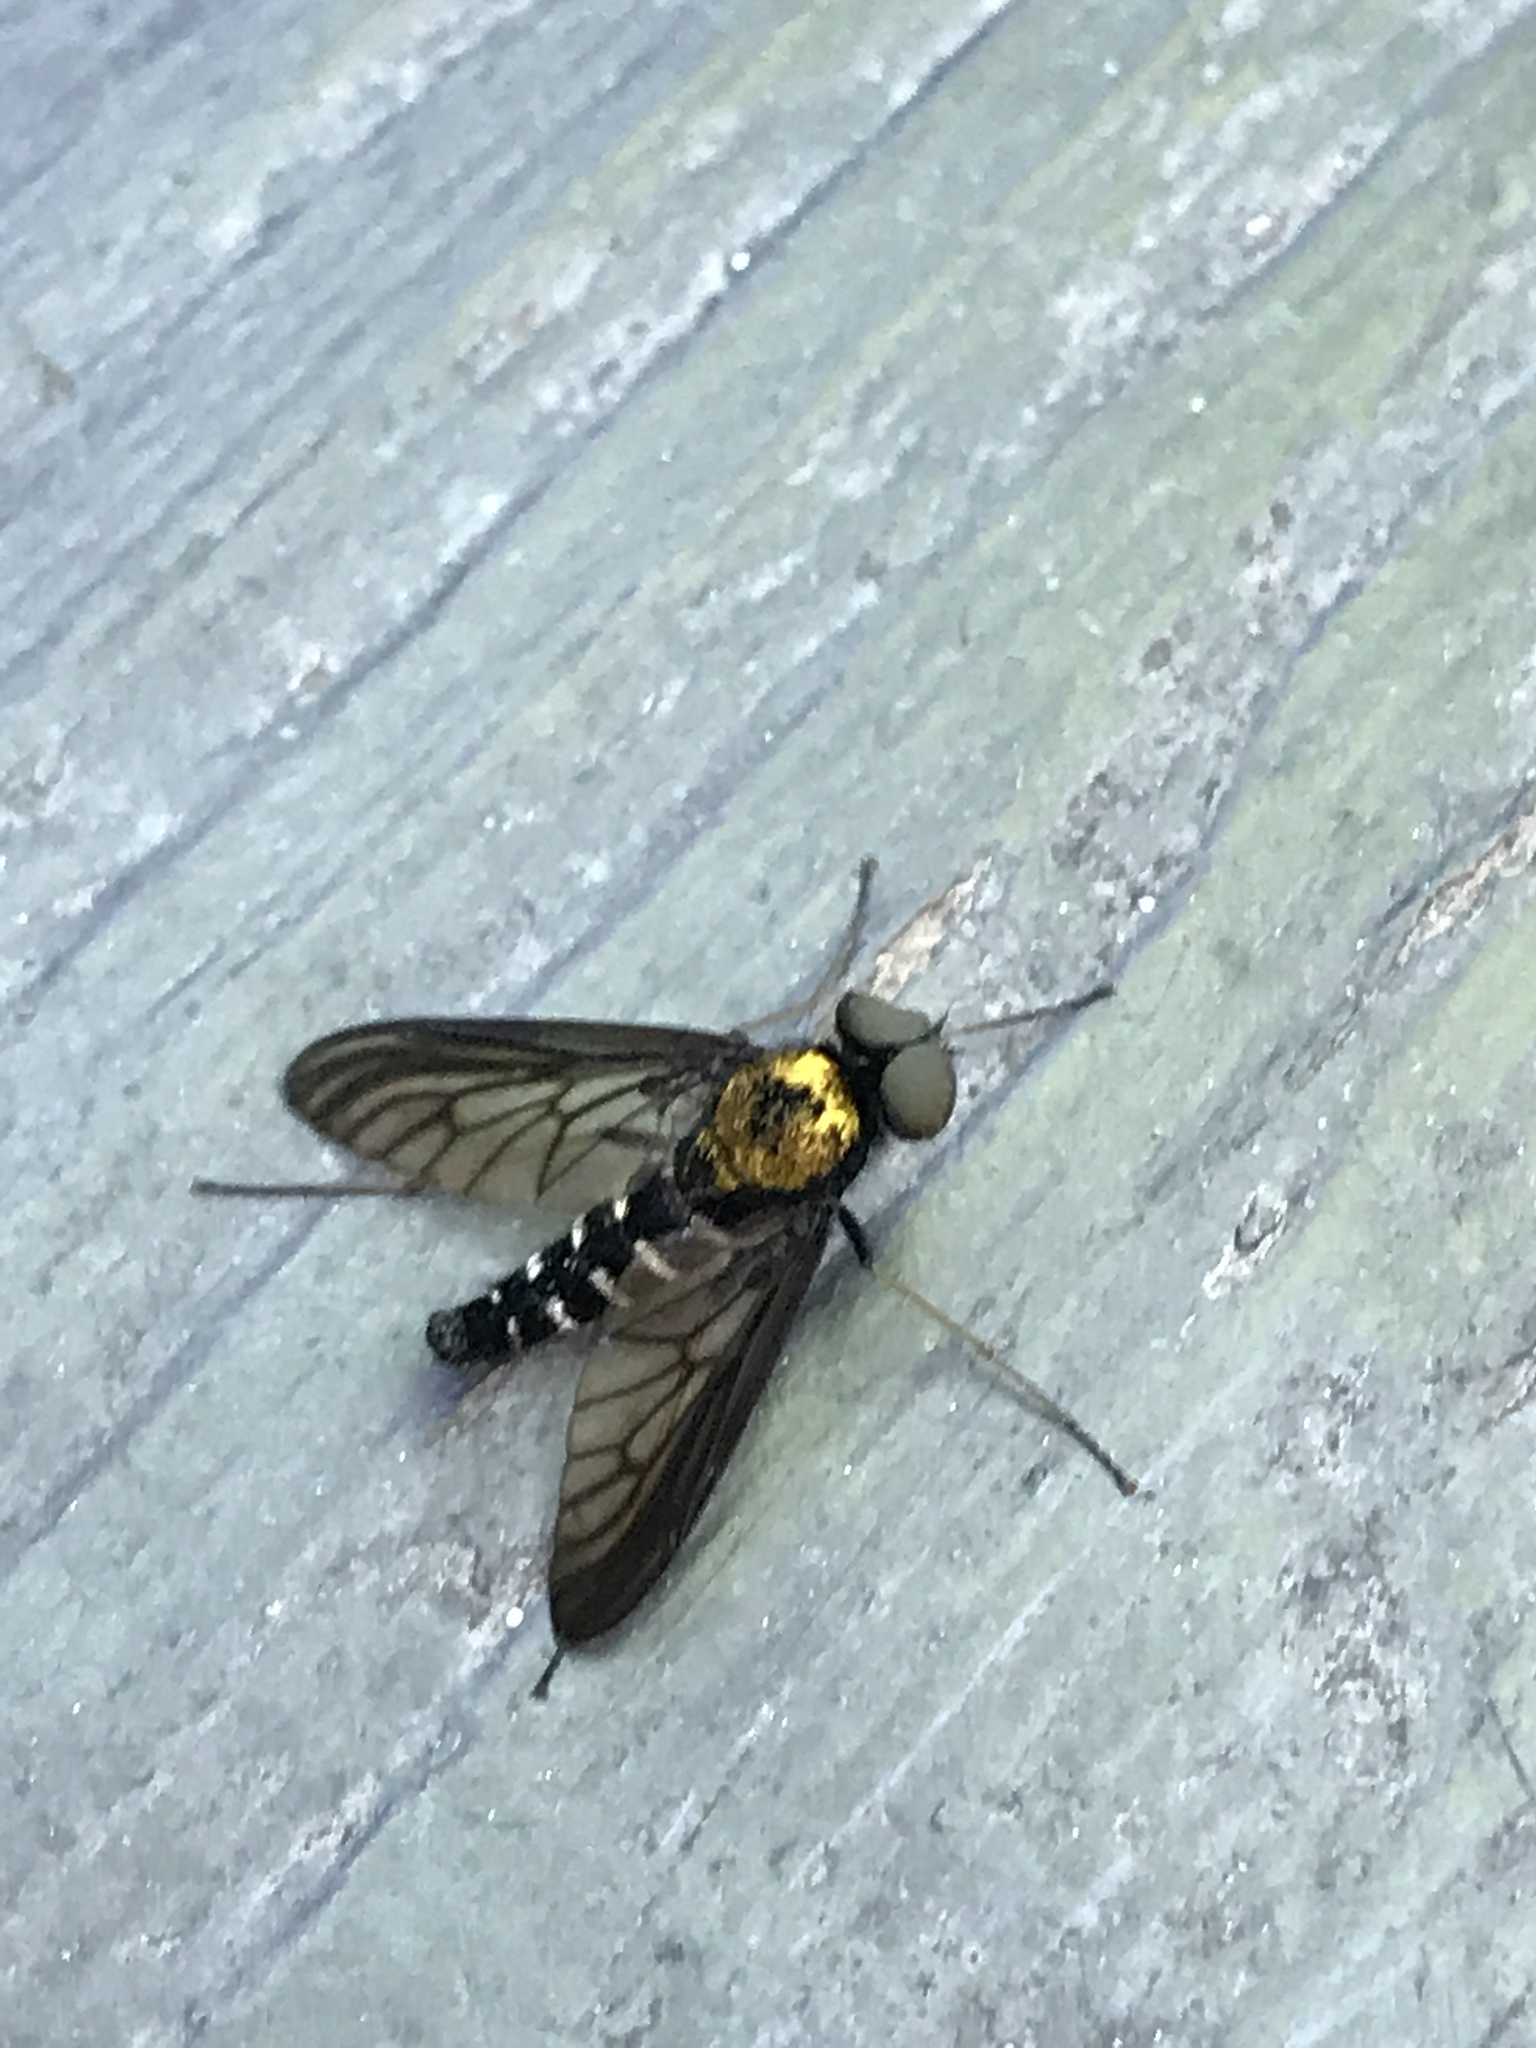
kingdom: Animalia
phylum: Arthropoda
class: Insecta
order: Diptera
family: Rhagionidae
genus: Chrysopilus
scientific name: Chrysopilus thoracicus
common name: Golden-backed snipe fly
